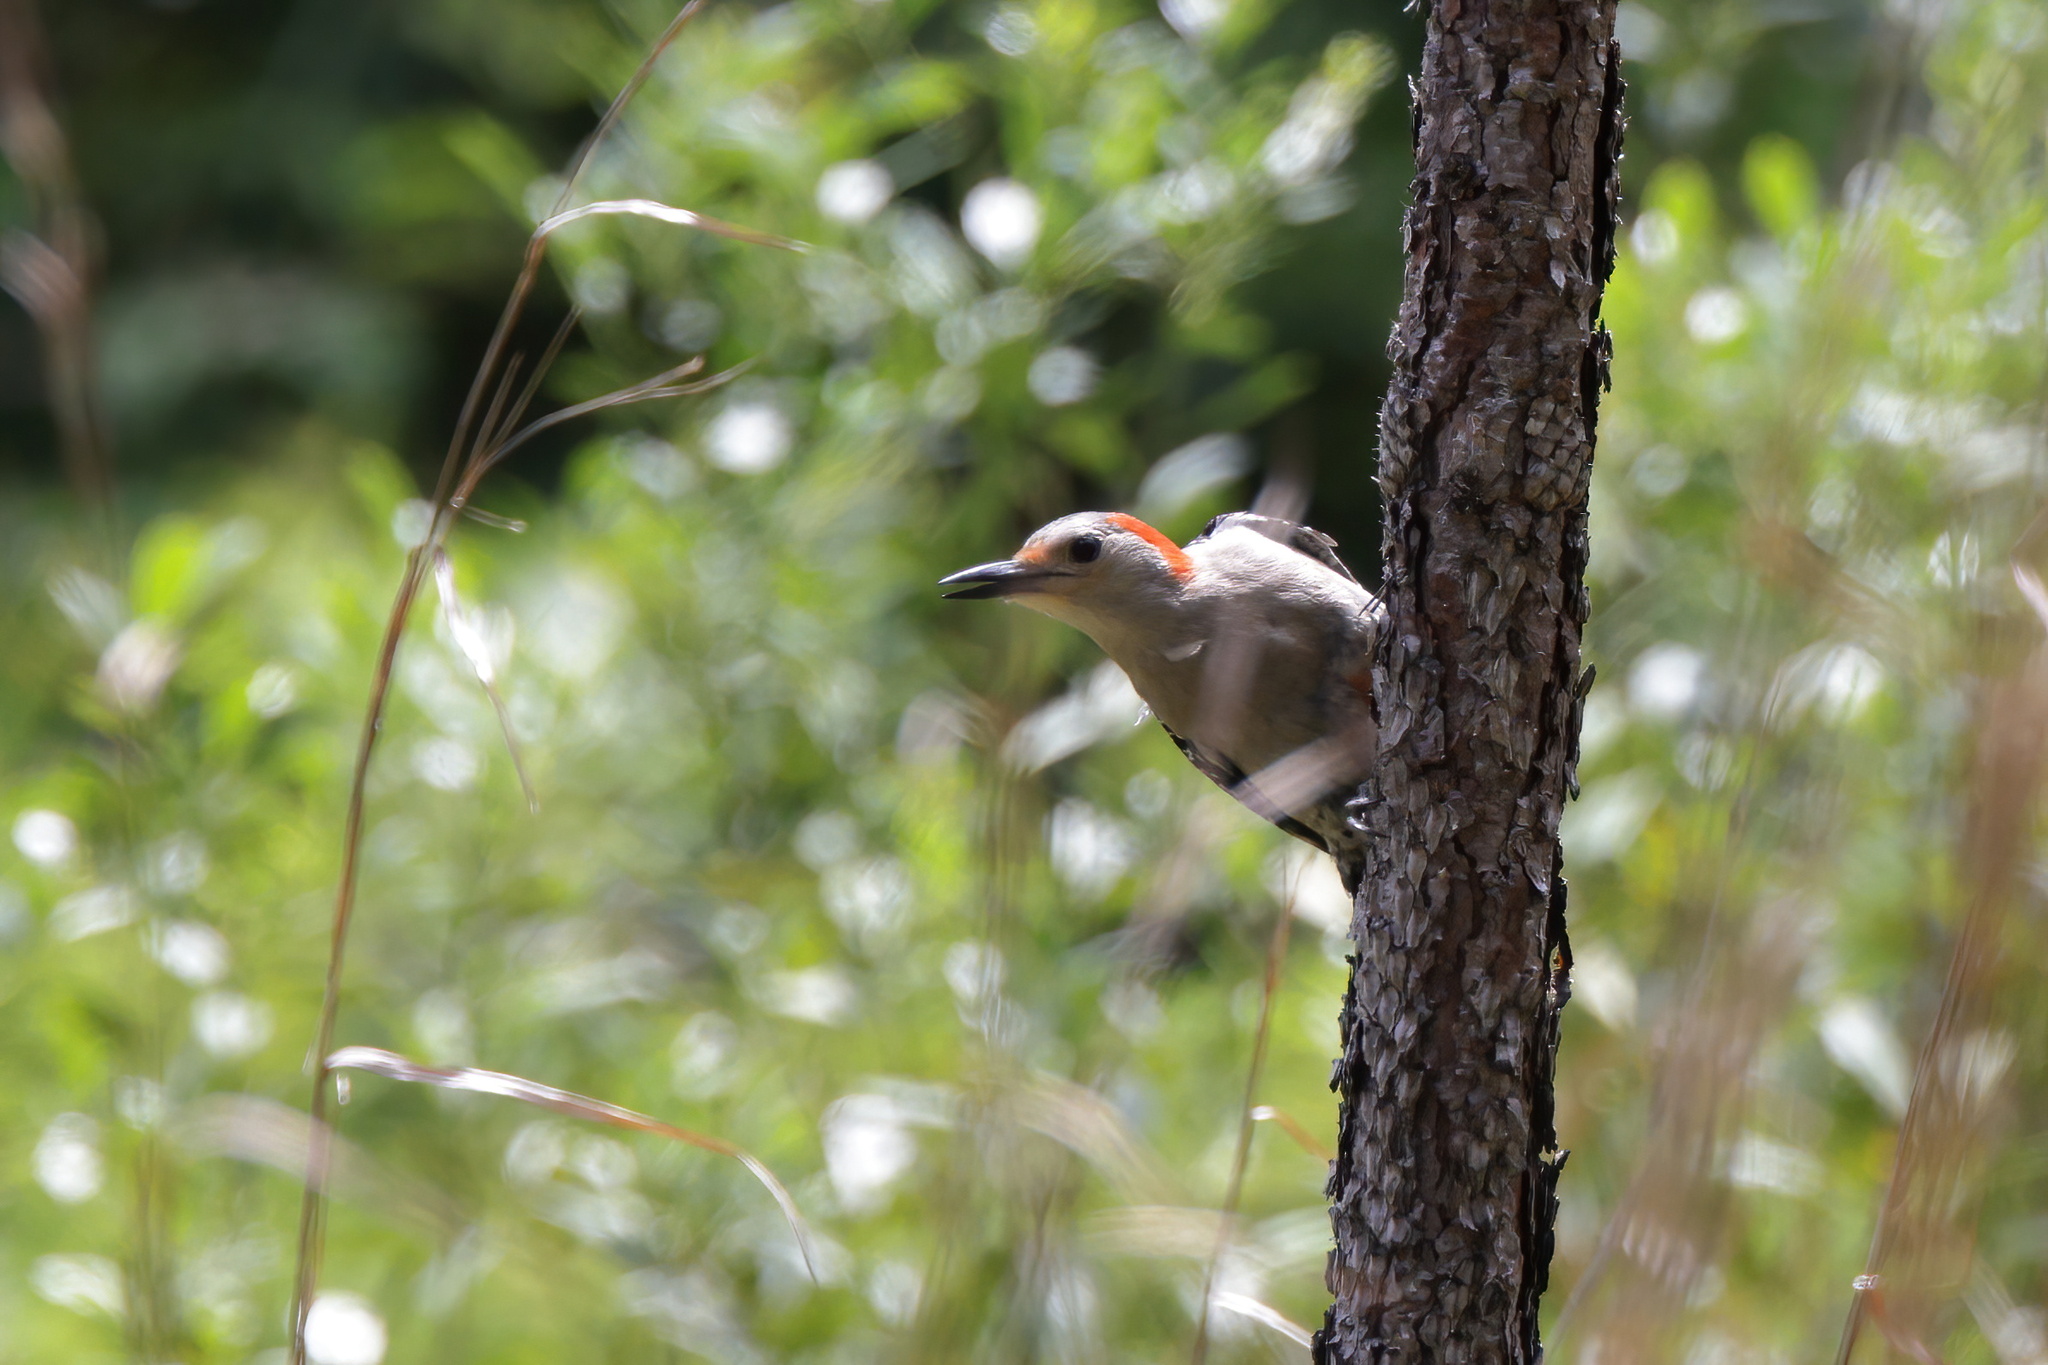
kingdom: Animalia
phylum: Chordata
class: Aves
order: Piciformes
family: Picidae
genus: Melanerpes
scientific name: Melanerpes carolinus
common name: Red-bellied woodpecker
